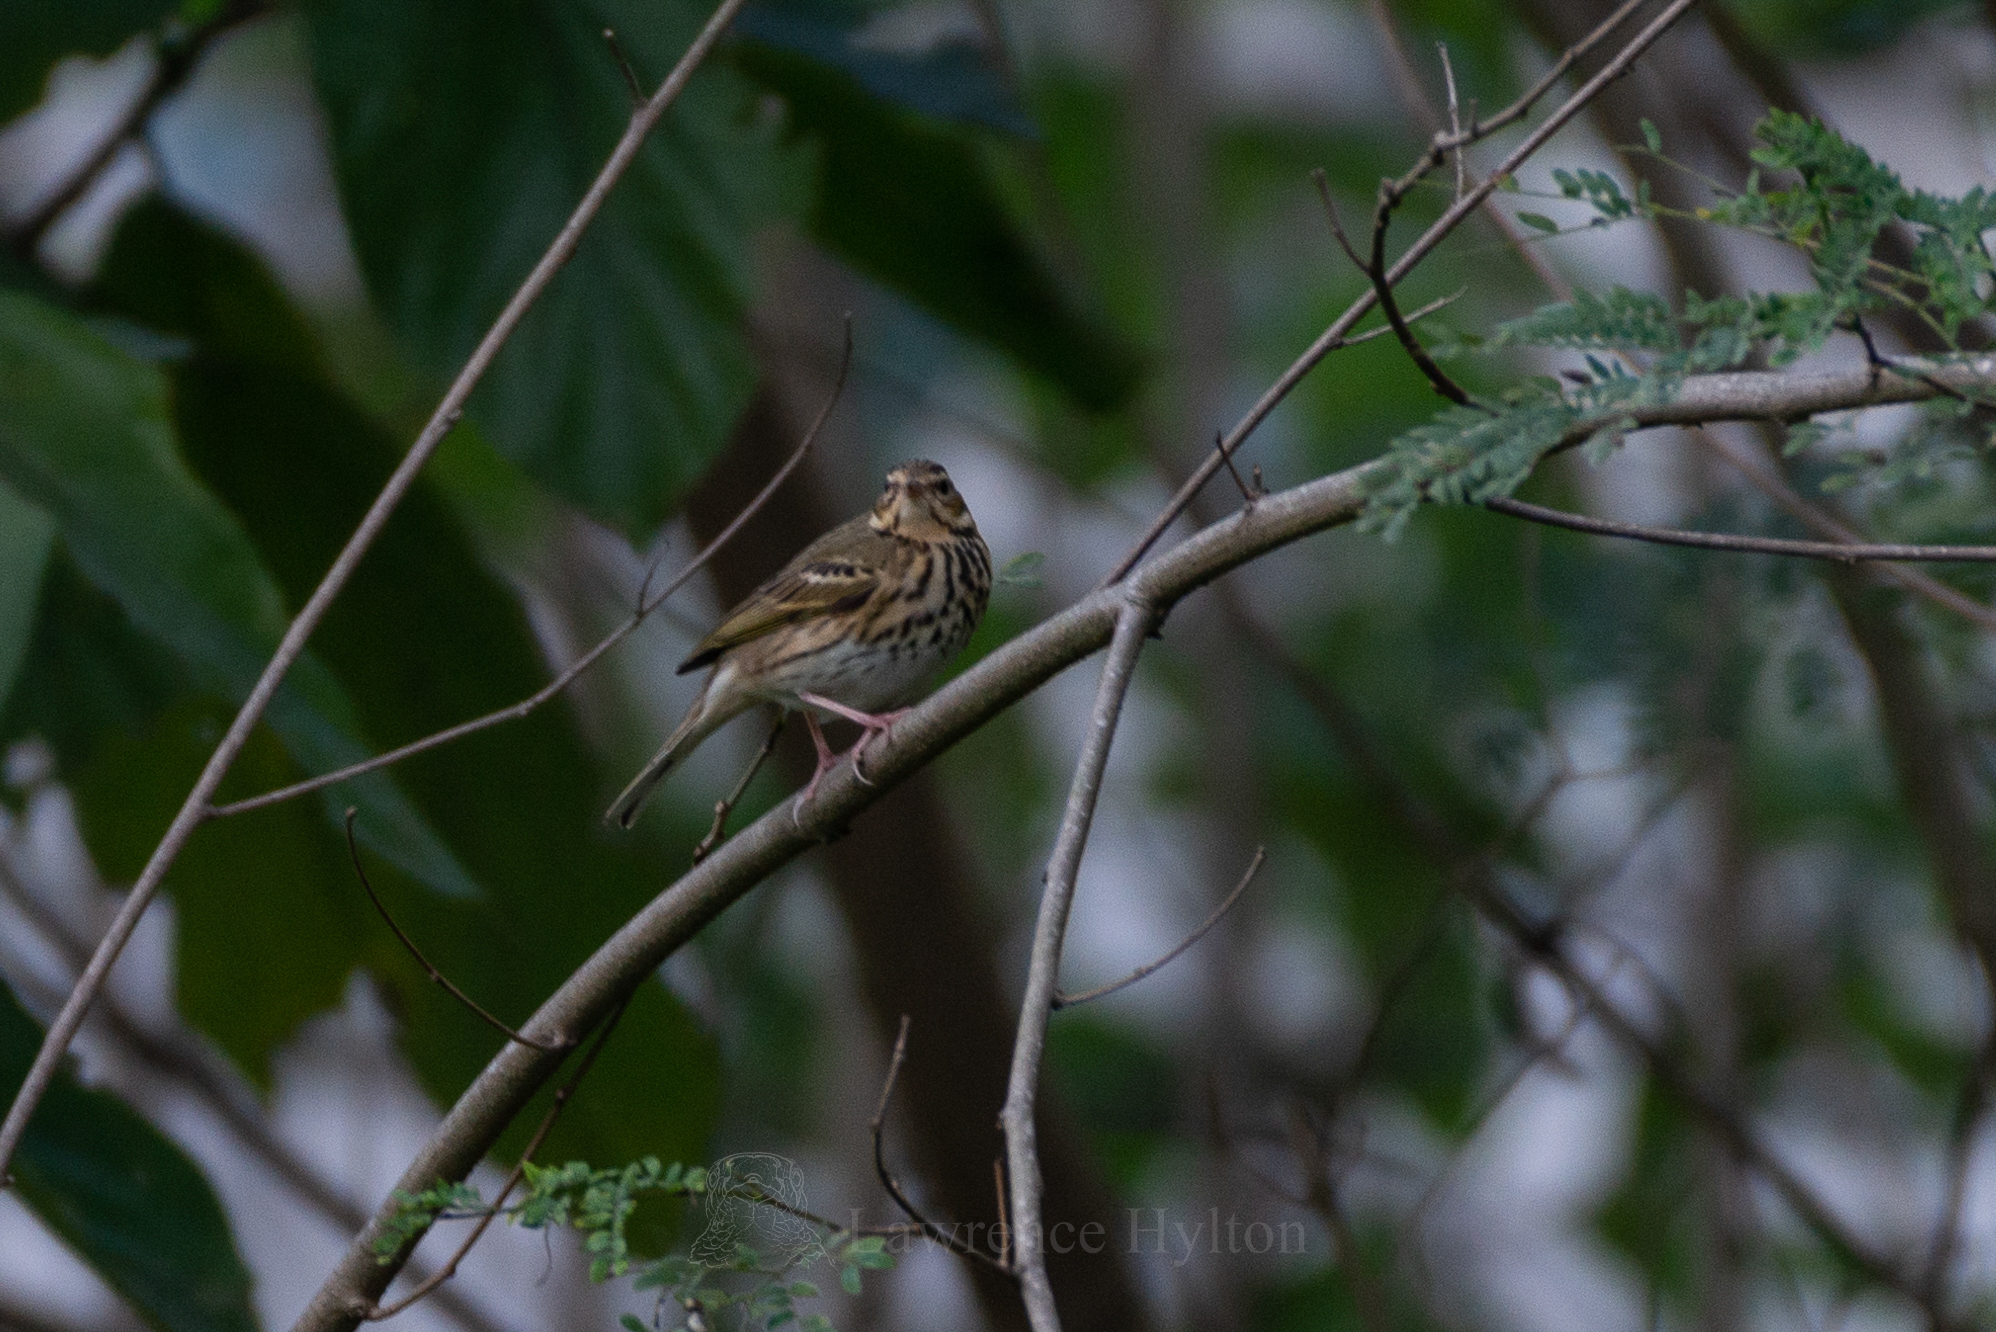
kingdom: Animalia
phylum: Chordata
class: Aves
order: Passeriformes
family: Motacillidae
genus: Anthus
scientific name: Anthus hodgsoni
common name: Olive-backed pipit
